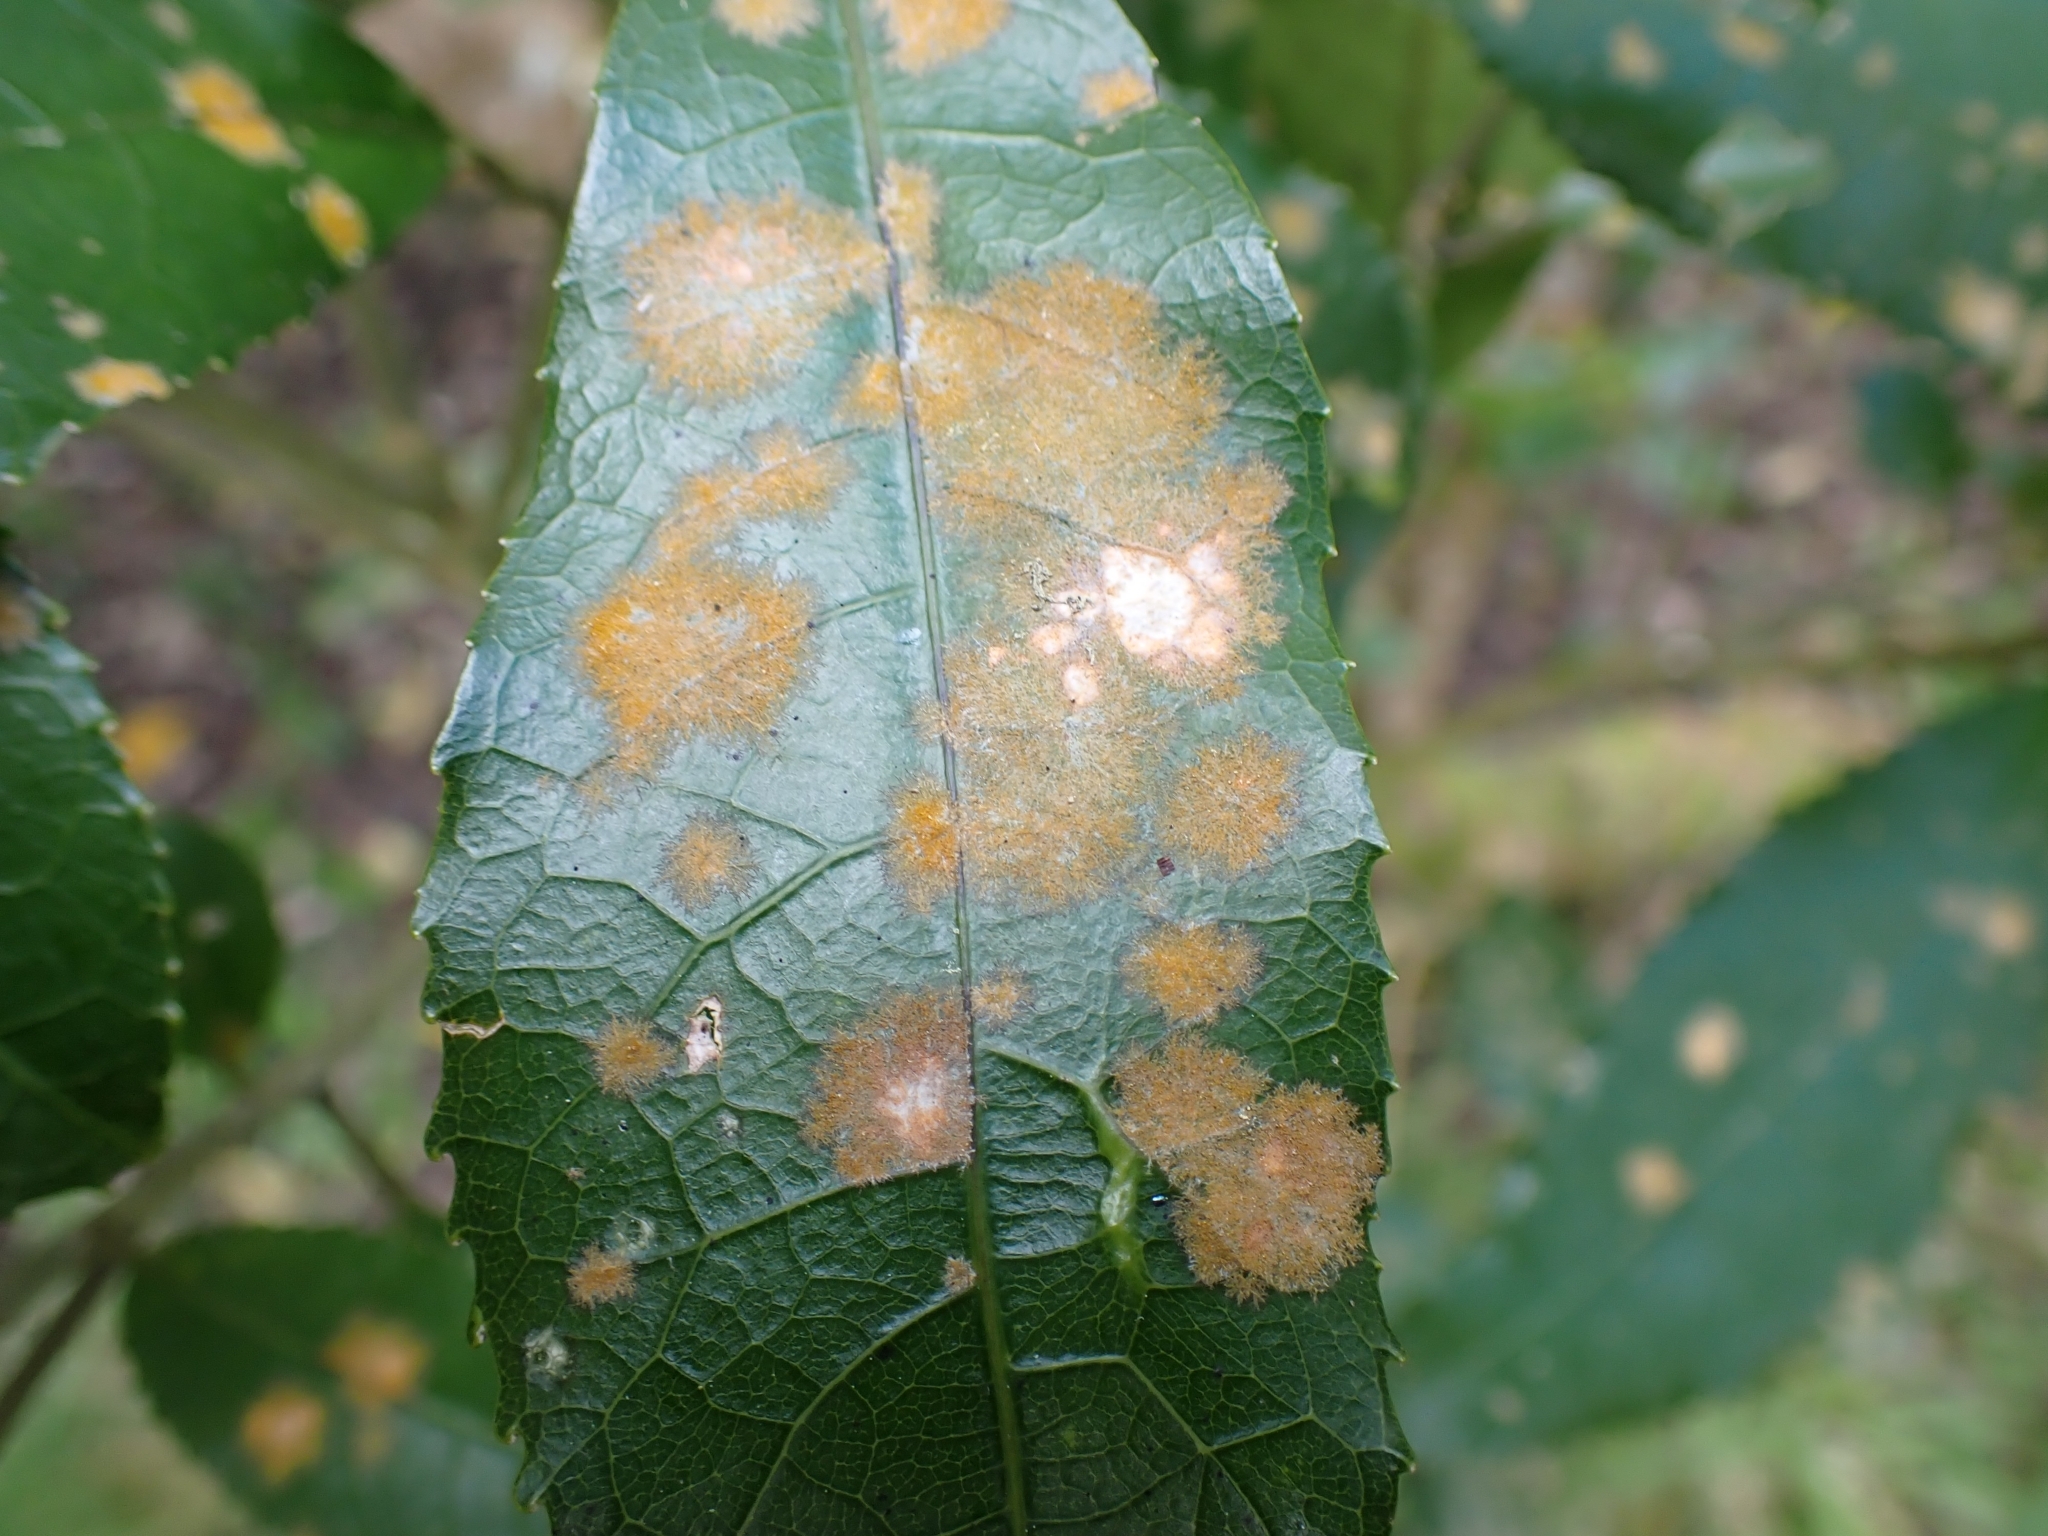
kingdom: Plantae
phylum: Chlorophyta
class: Ulvophyceae
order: Trentepohliales
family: Trentepohliaceae
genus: Cephaleuros
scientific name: Cephaleuros
